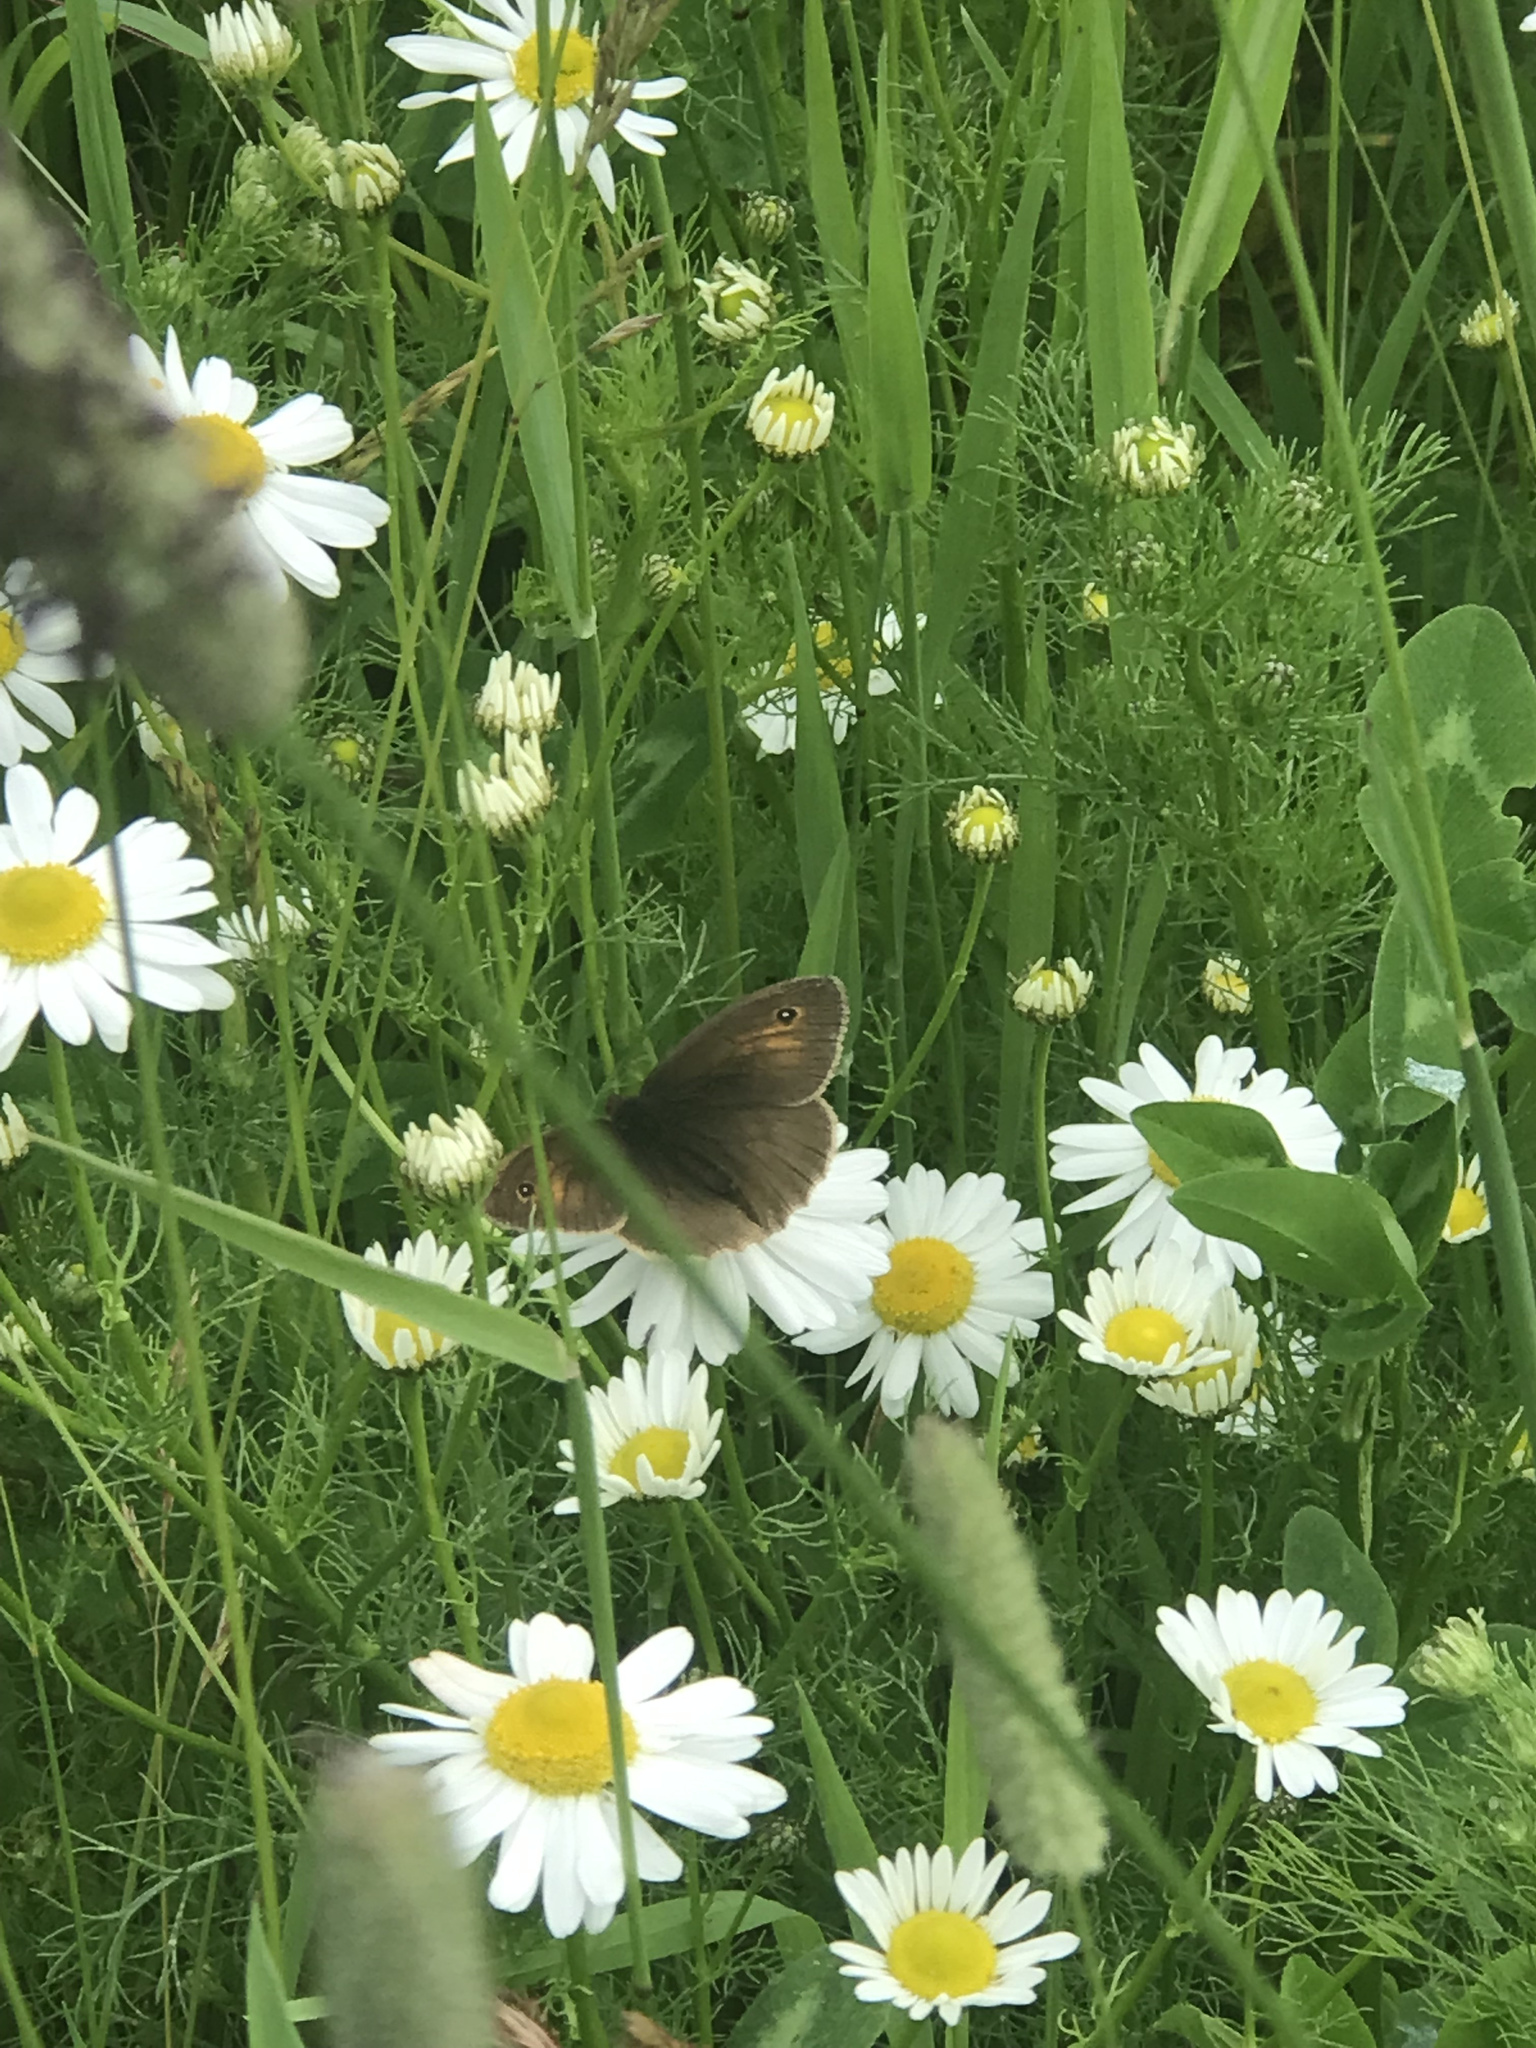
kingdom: Animalia
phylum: Arthropoda
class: Insecta
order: Lepidoptera
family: Nymphalidae
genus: Maniola
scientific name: Maniola jurtina
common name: Meadow brown
